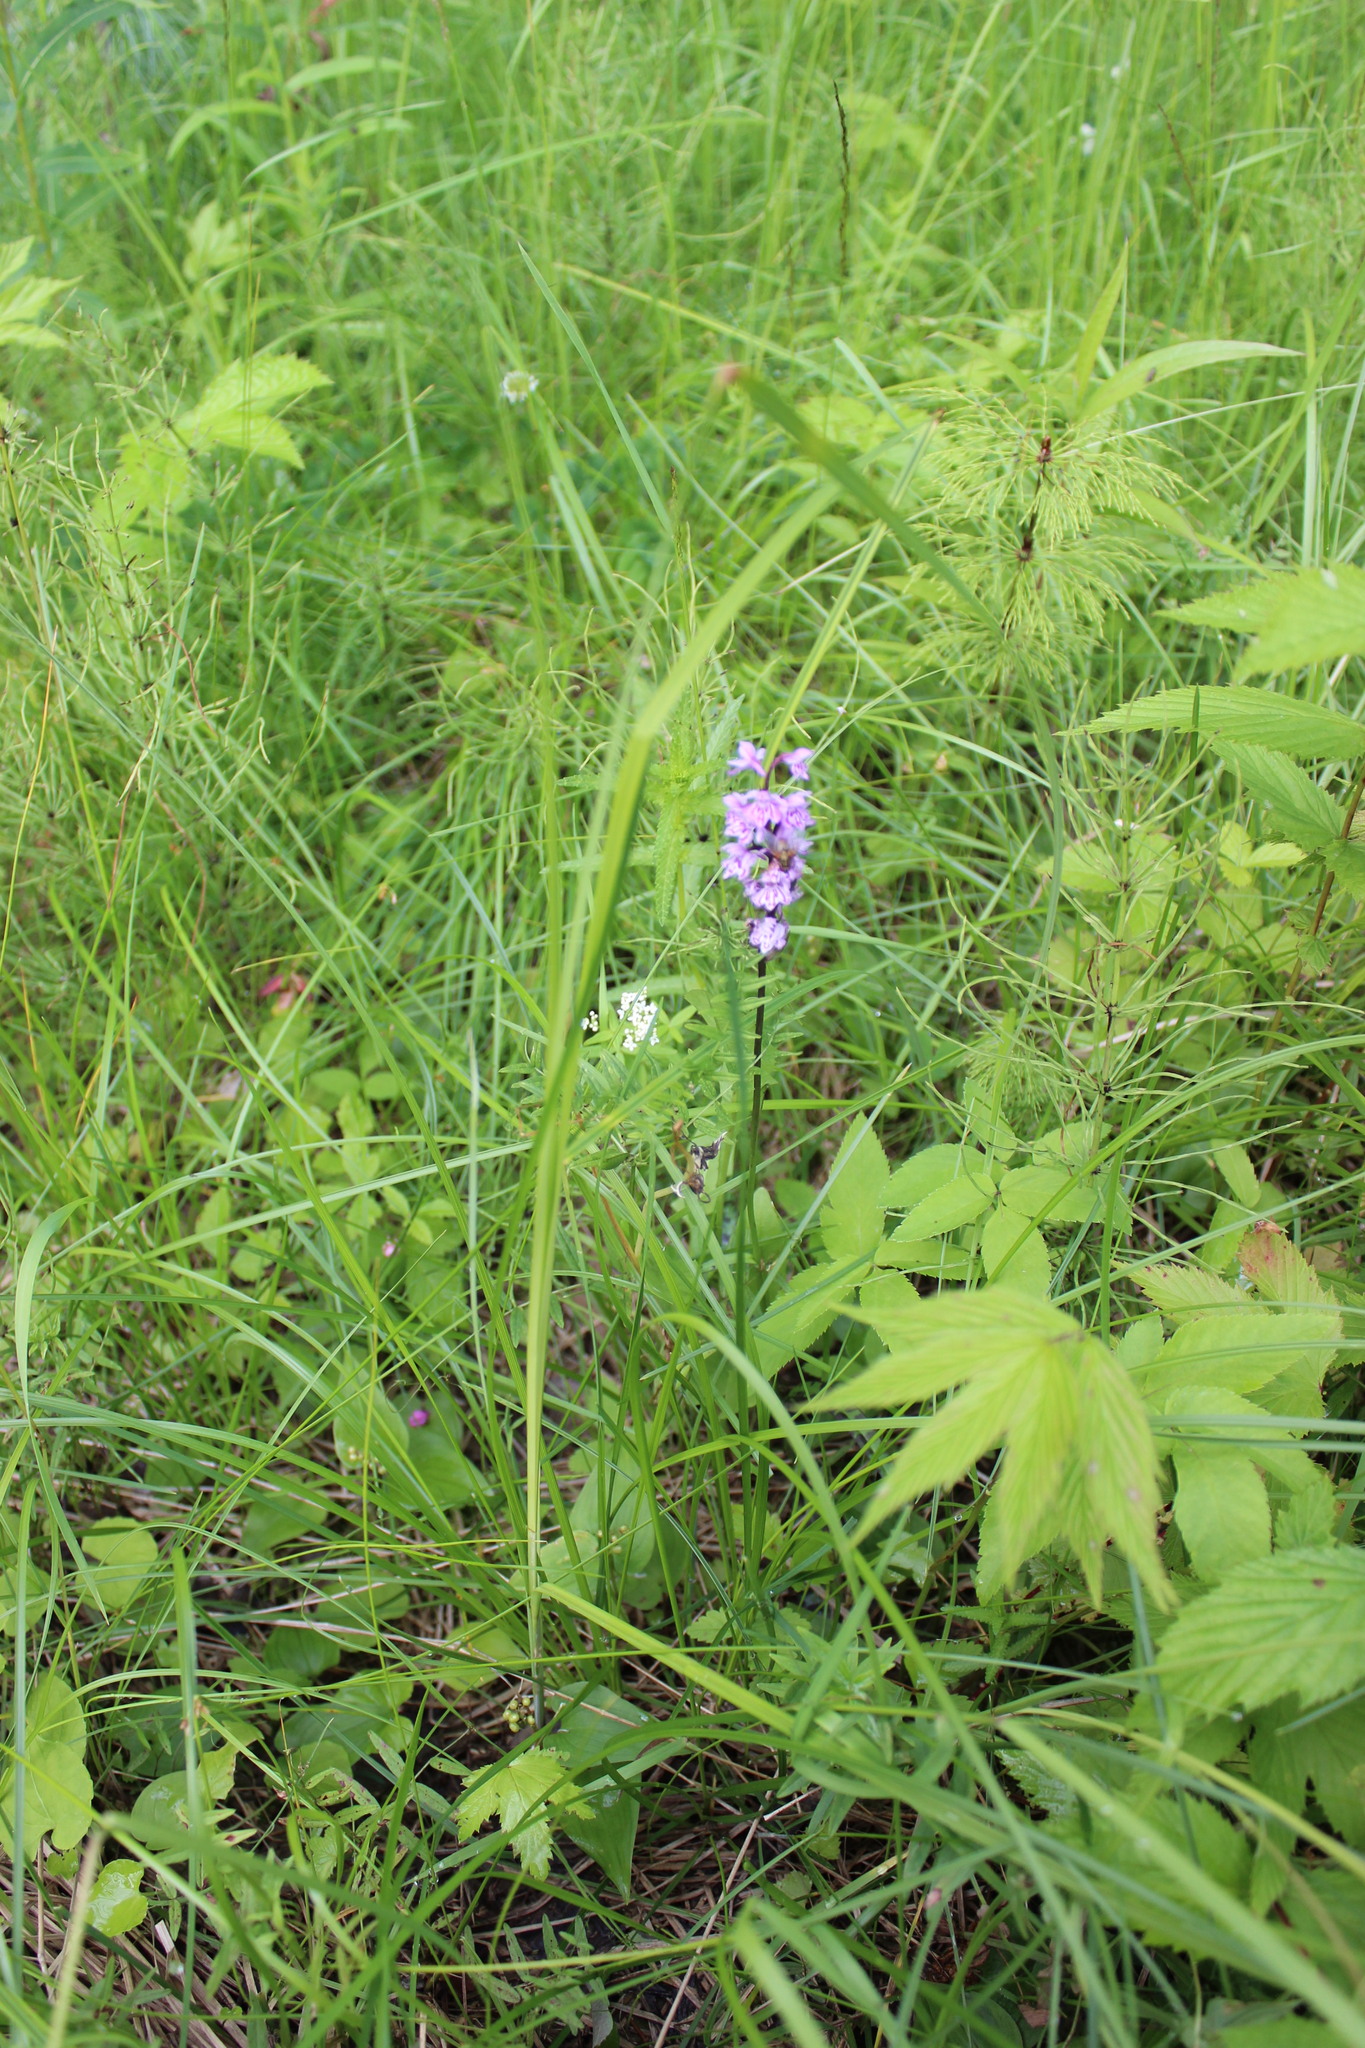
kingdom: Plantae
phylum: Tracheophyta
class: Liliopsida
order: Asparagales
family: Orchidaceae
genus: Dactylorhiza
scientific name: Dactylorhiza maculata
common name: Heath spotted-orchid
